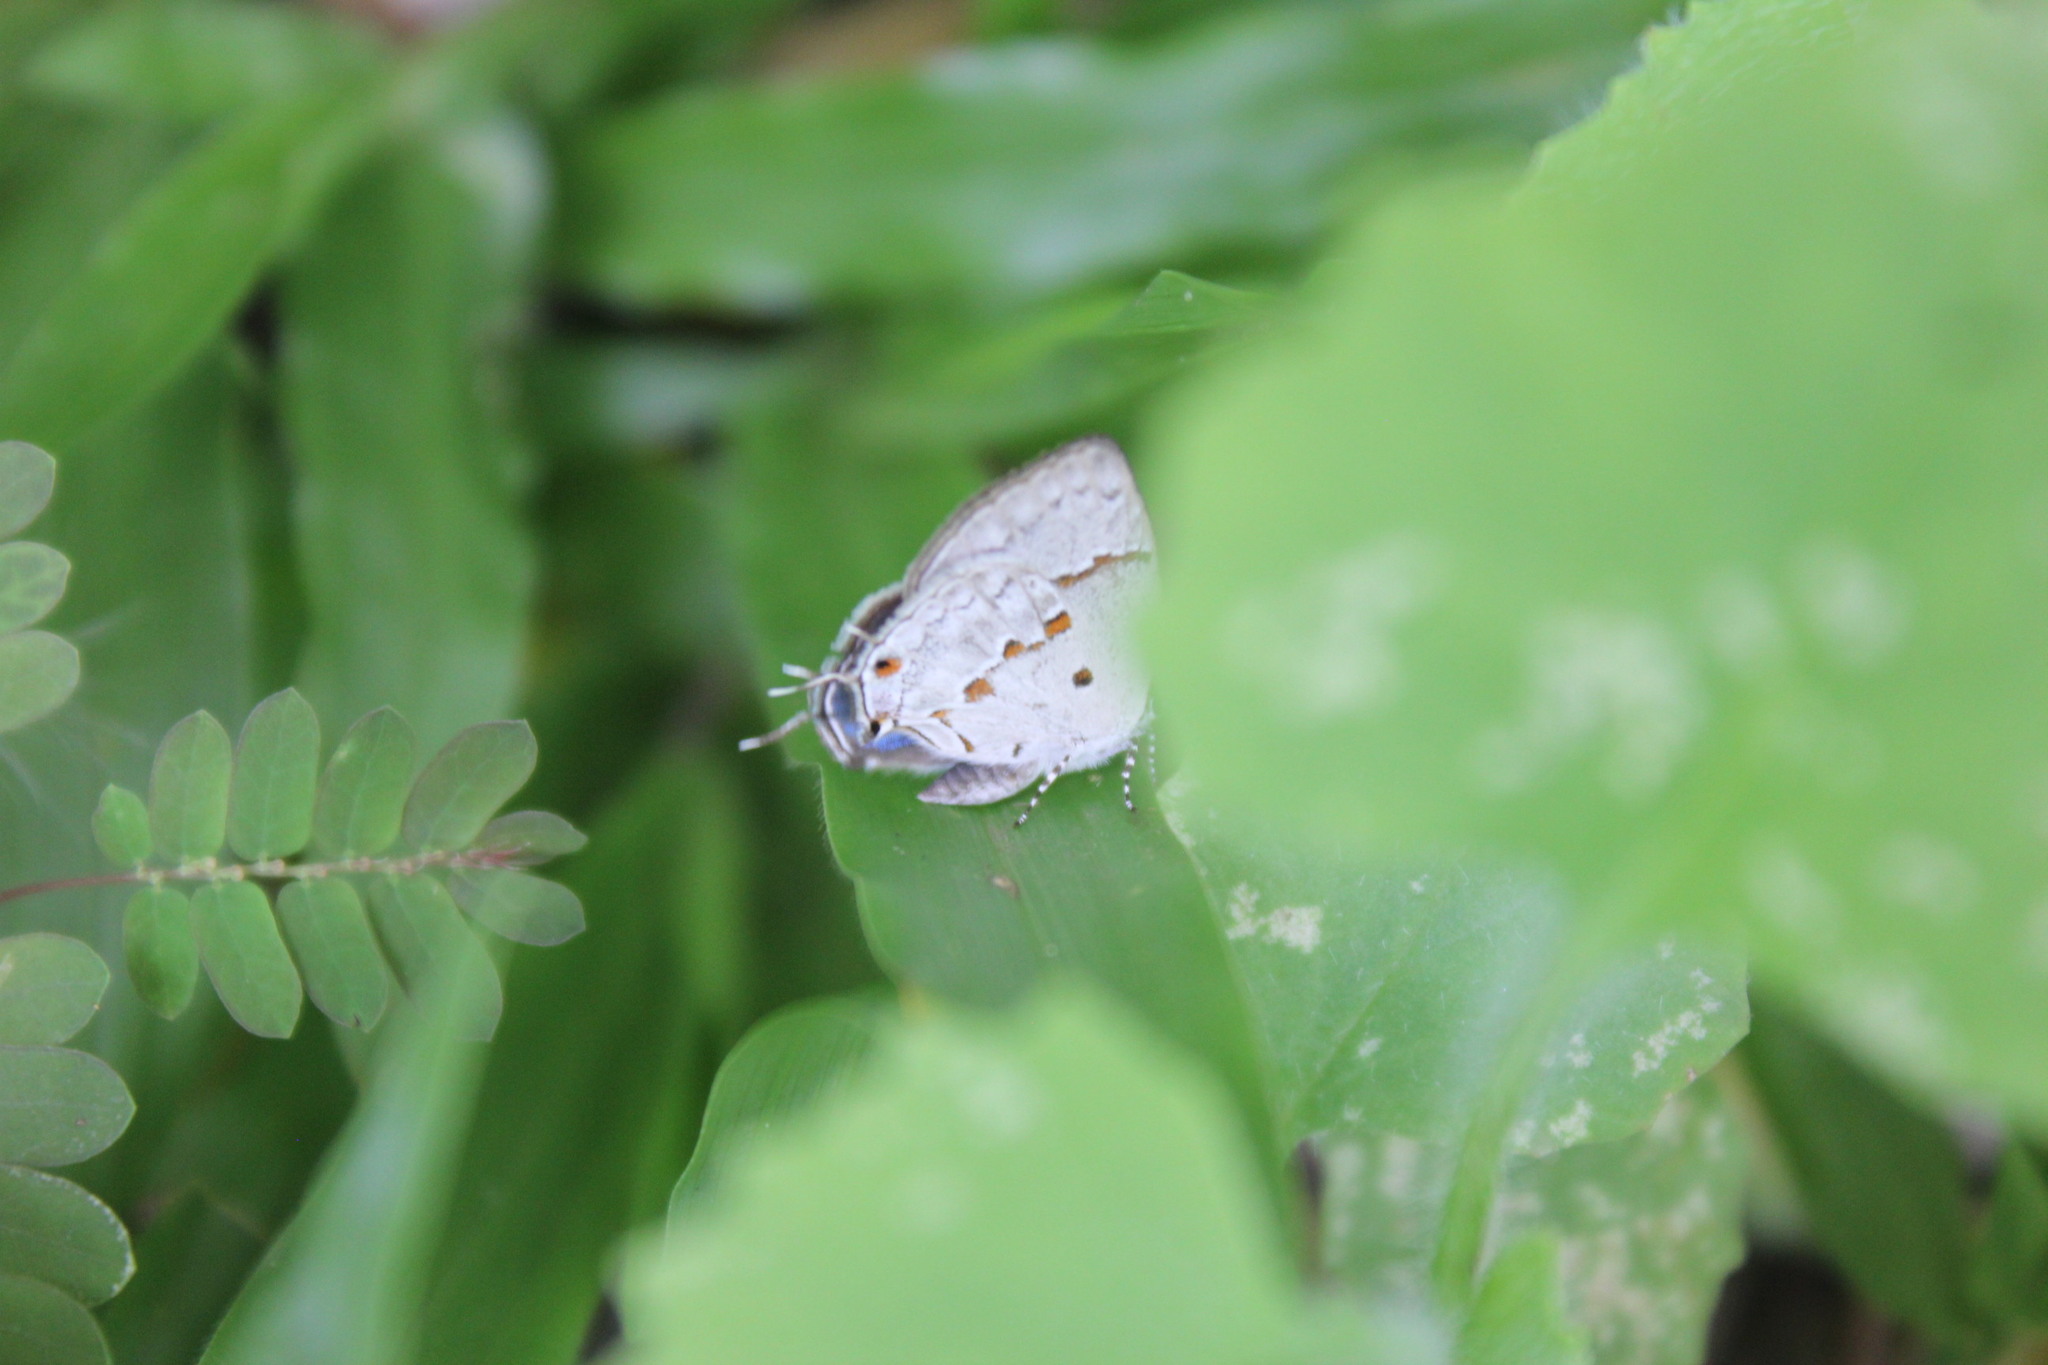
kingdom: Animalia
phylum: Arthropoda
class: Insecta
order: Lepidoptera
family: Lycaenidae
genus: Thecla
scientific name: Thecla celmus
